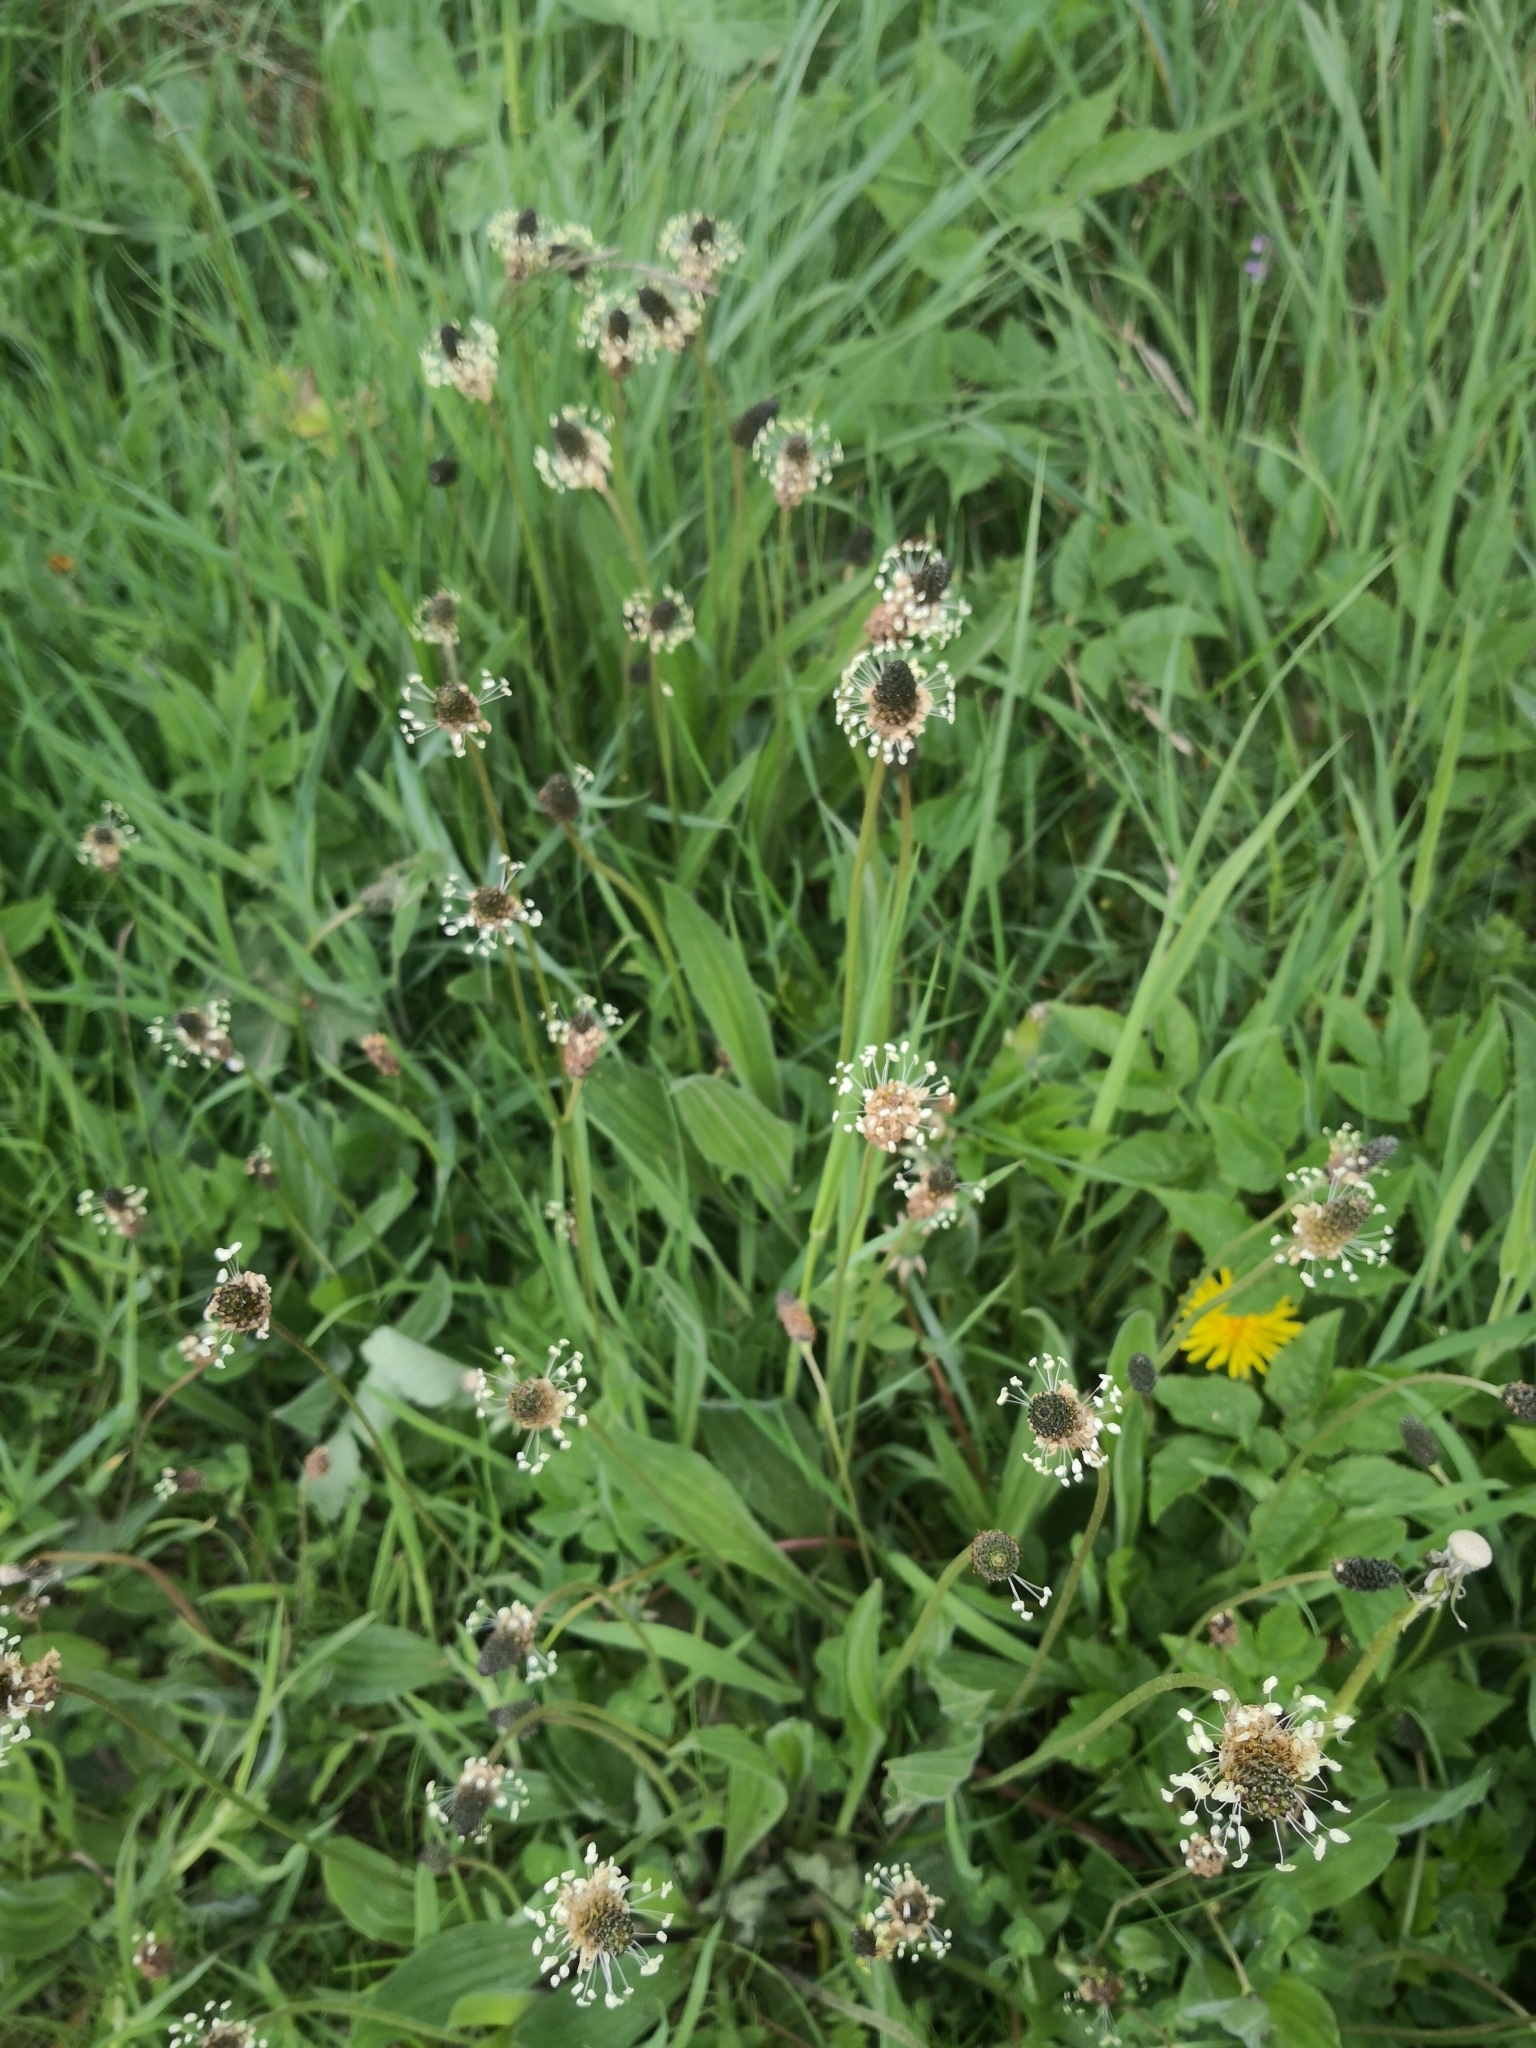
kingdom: Plantae
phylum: Tracheophyta
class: Magnoliopsida
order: Lamiales
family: Plantaginaceae
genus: Plantago
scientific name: Plantago lanceolata
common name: Ribwort plantain
